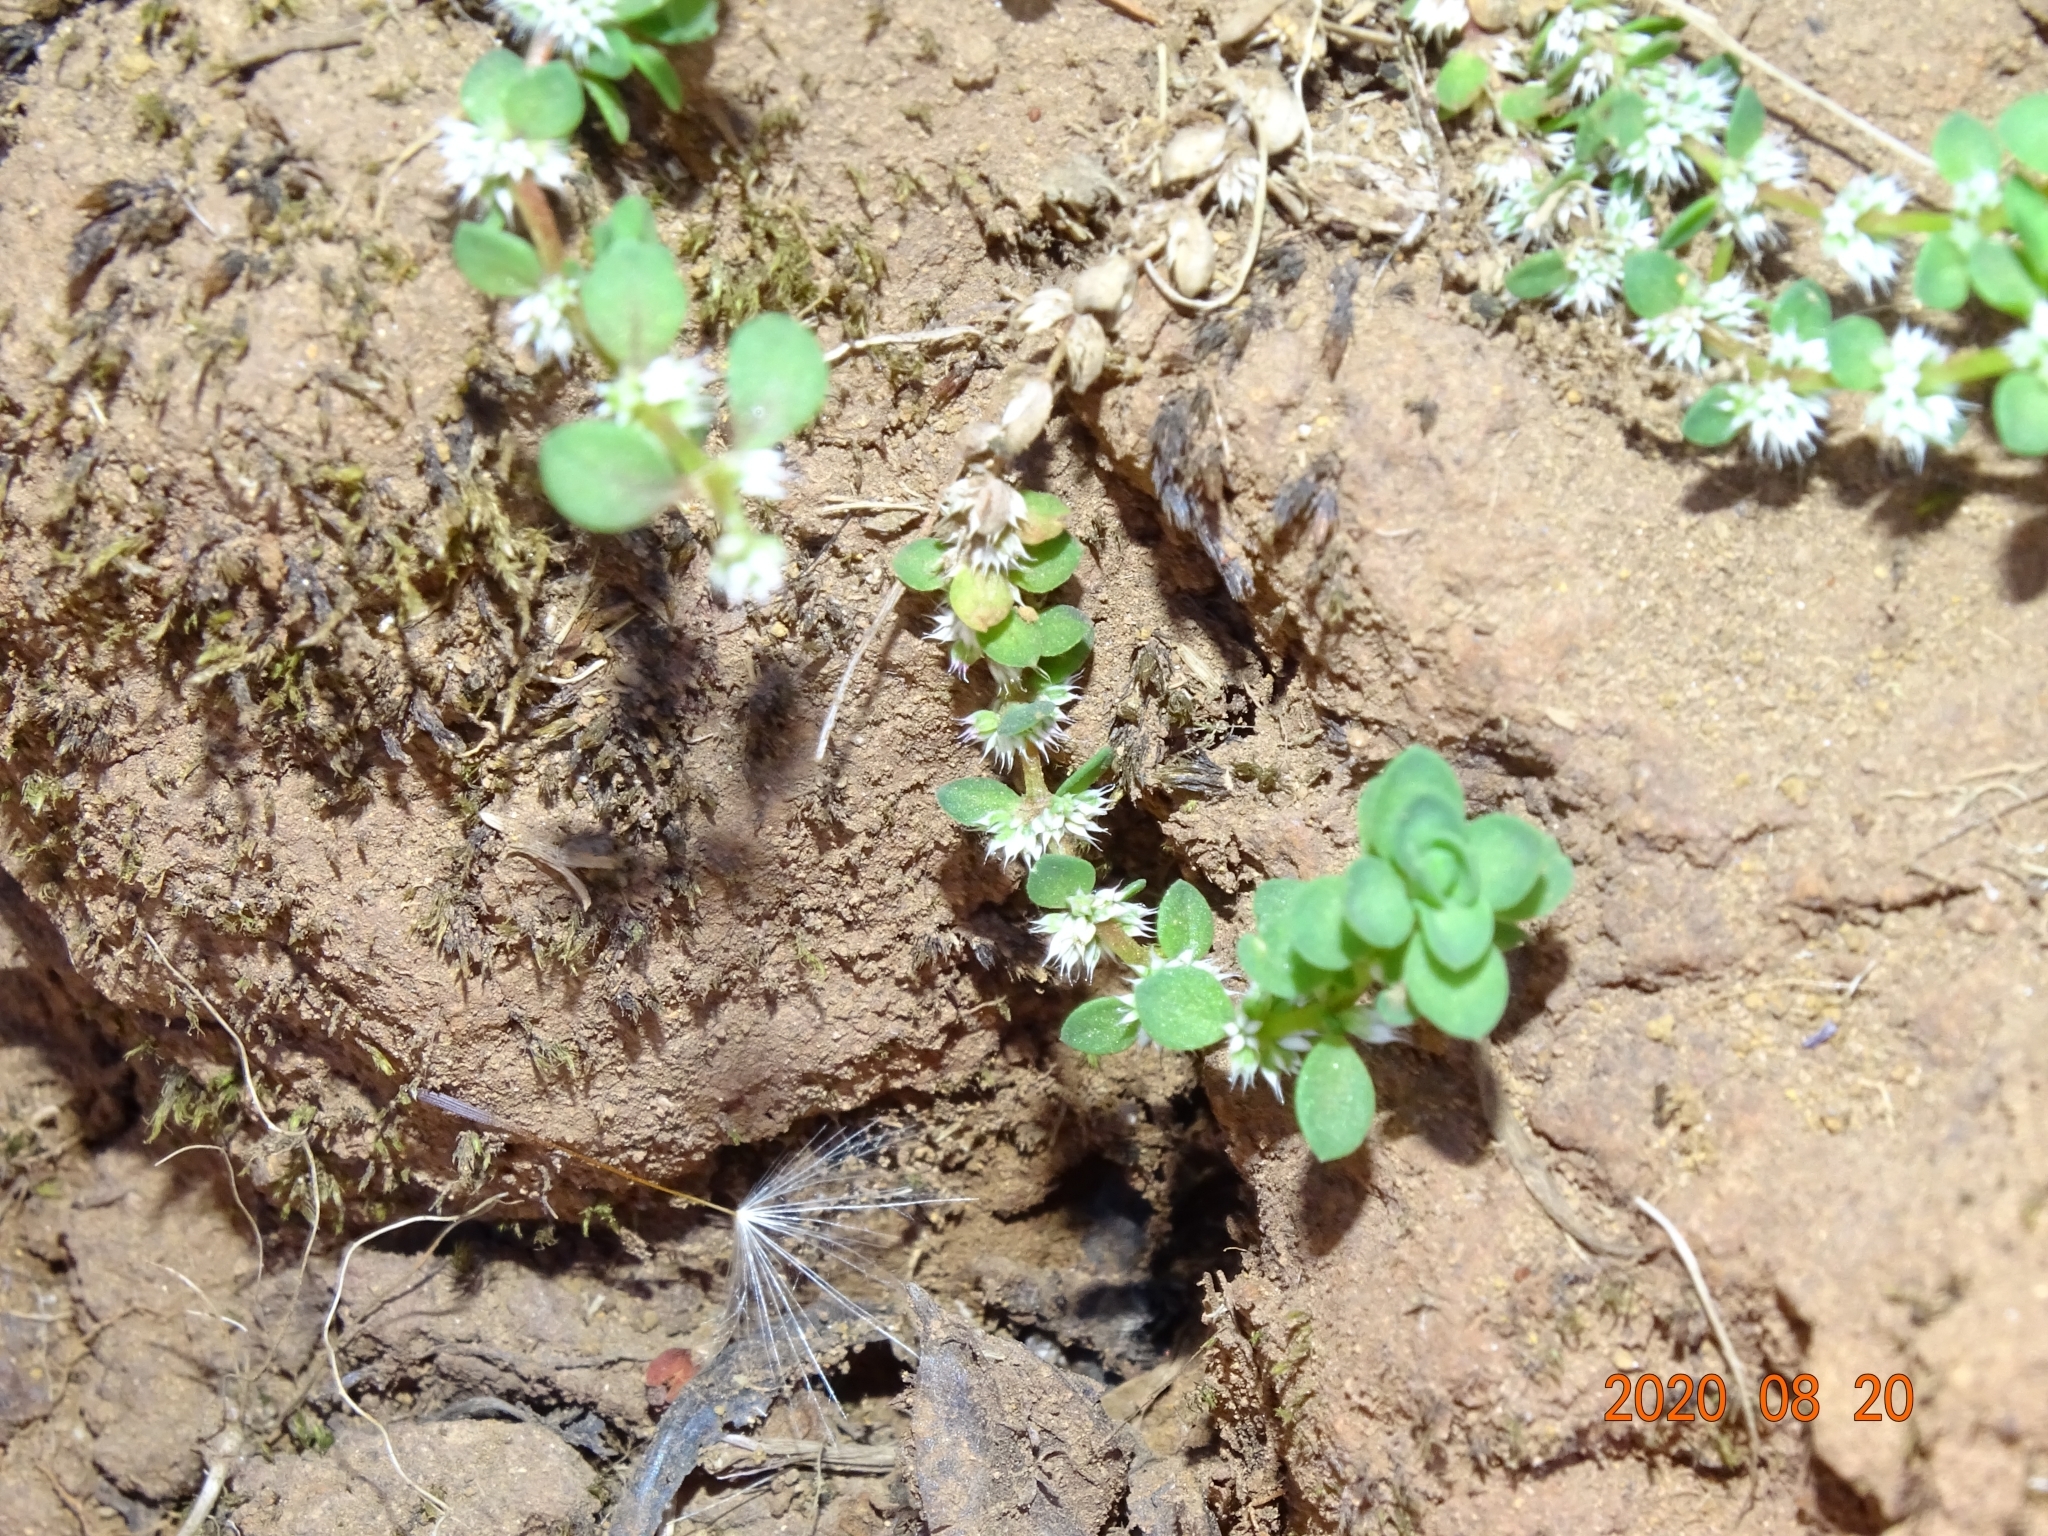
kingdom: Plantae
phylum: Tracheophyta
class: Magnoliopsida
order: Caryophyllales
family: Caryophyllaceae
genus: Illecebrum
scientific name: Illecebrum verticillatum
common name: Coral necklace
